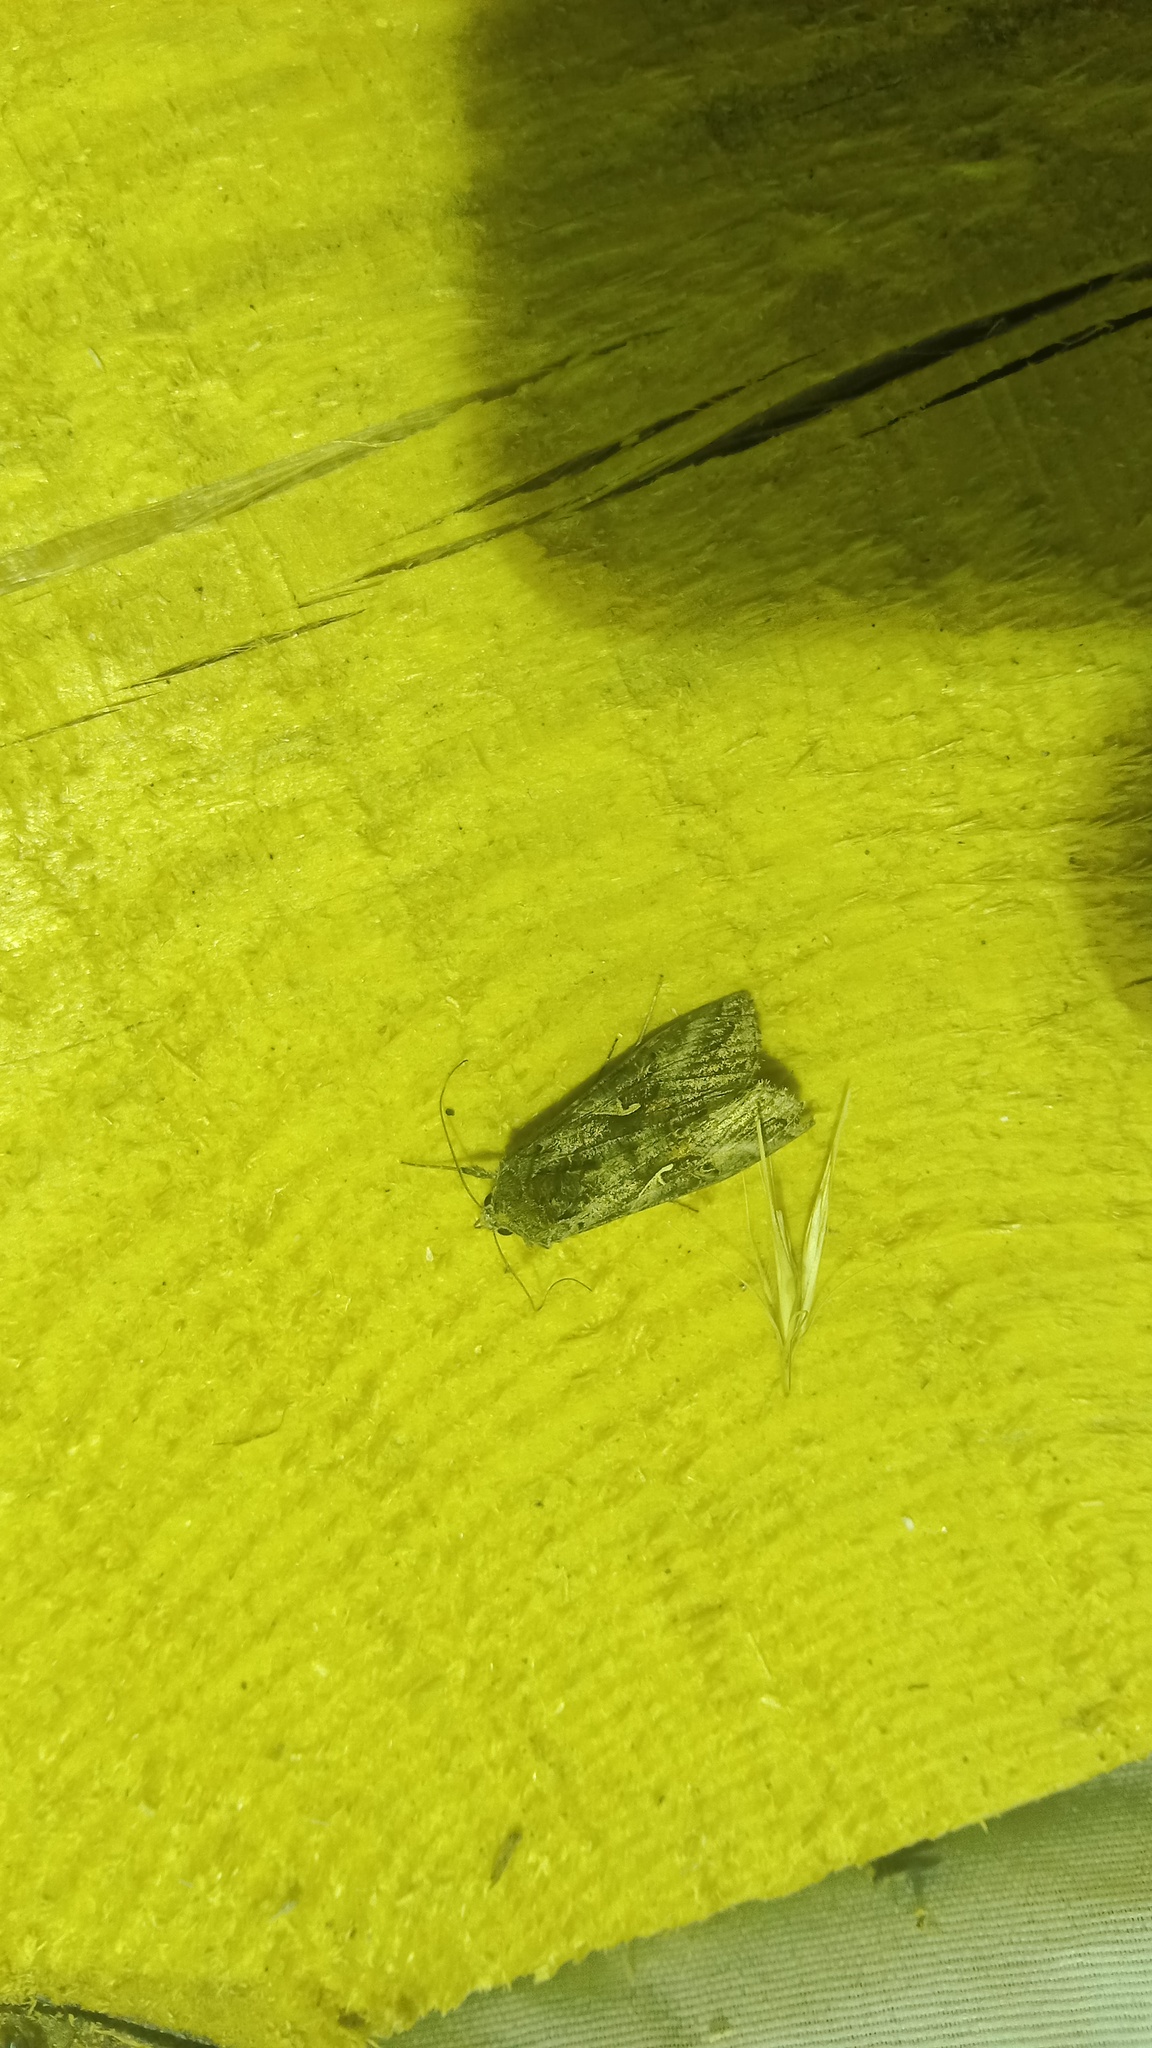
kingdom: Animalia
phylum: Arthropoda
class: Insecta
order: Lepidoptera
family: Noctuidae
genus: Autographa
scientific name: Autographa gamma
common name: Silver y
